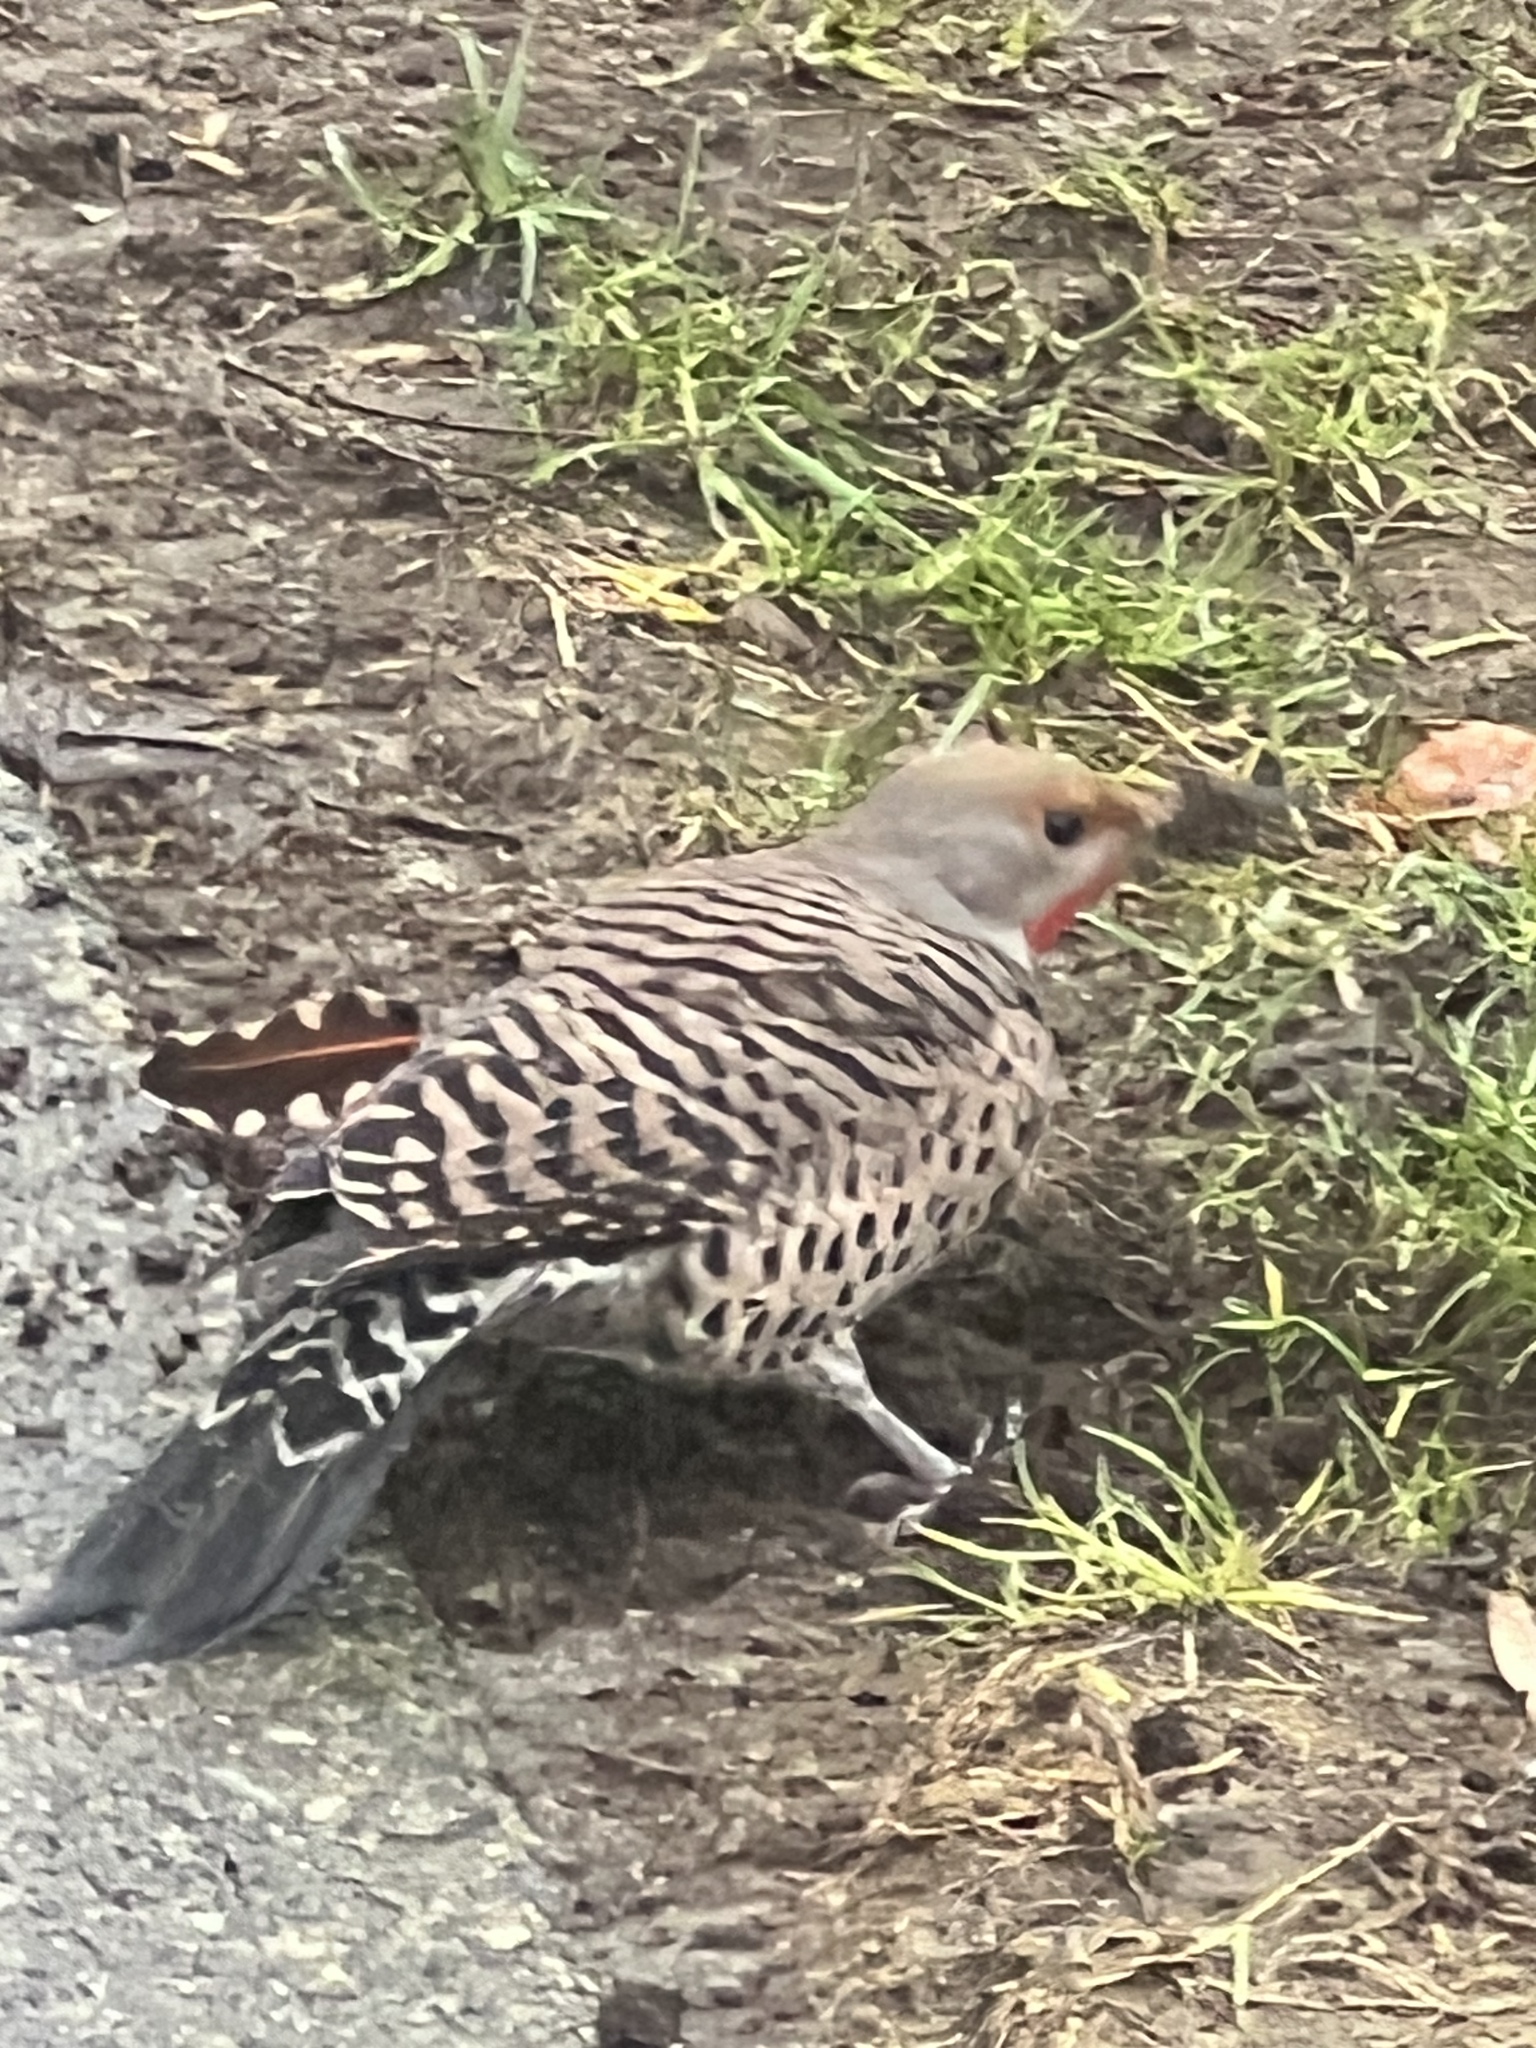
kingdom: Animalia
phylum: Chordata
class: Aves
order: Piciformes
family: Picidae
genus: Colaptes
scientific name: Colaptes auratus
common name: Northern flicker
